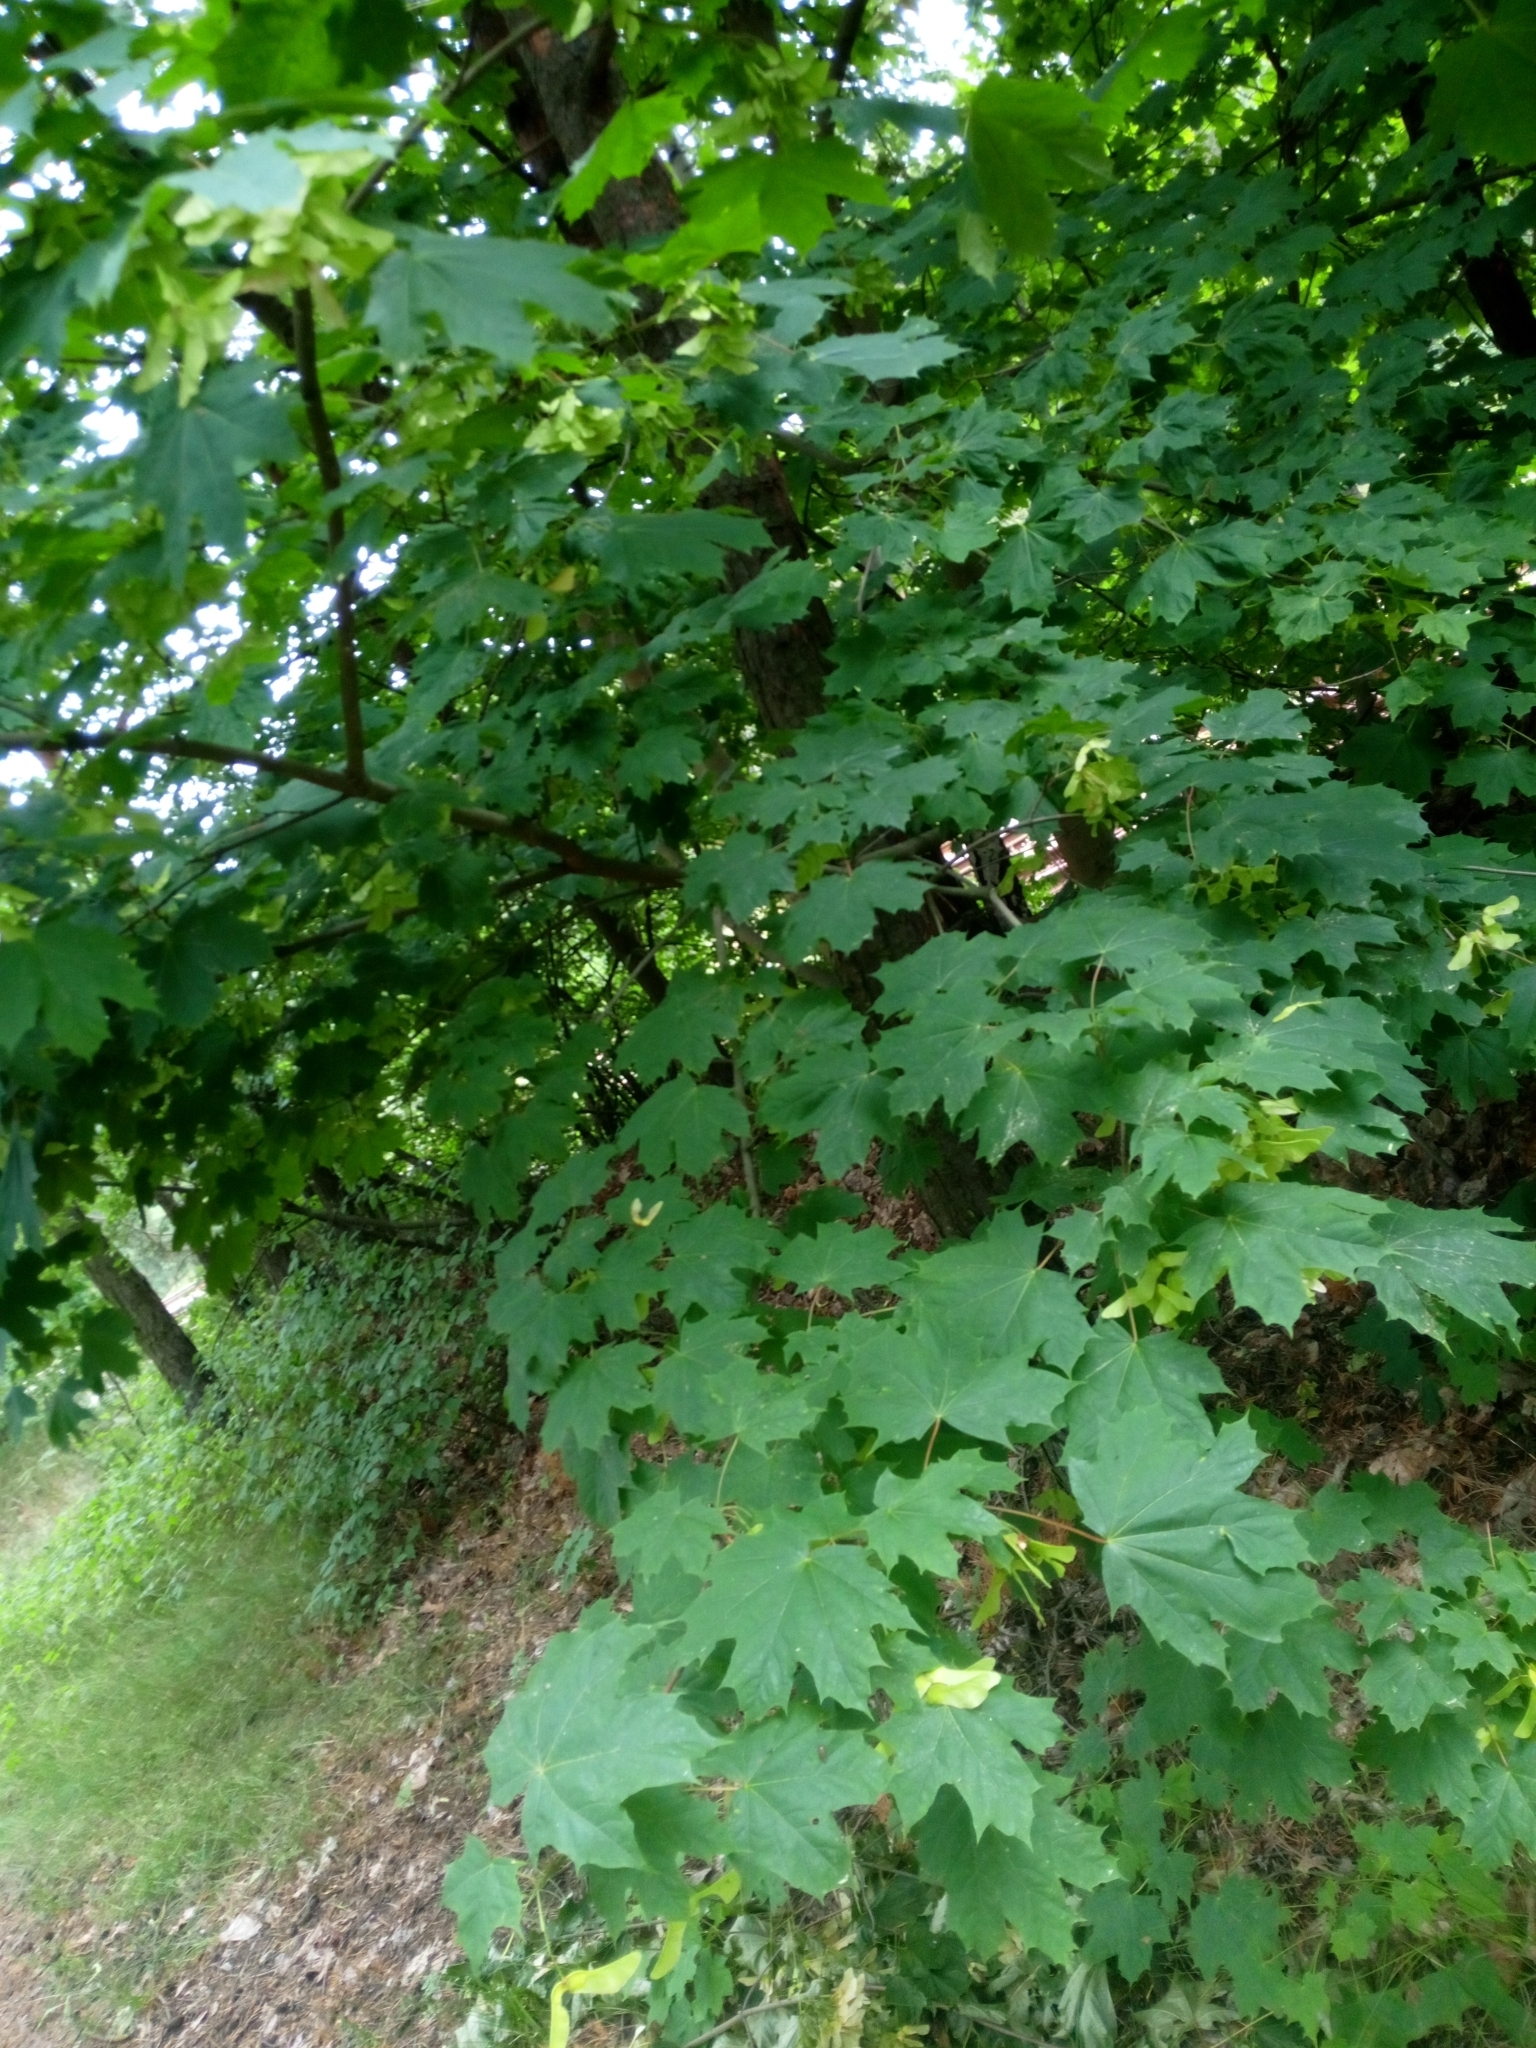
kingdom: Plantae
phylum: Tracheophyta
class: Magnoliopsida
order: Sapindales
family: Sapindaceae
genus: Acer
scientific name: Acer platanoides
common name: Norway maple
